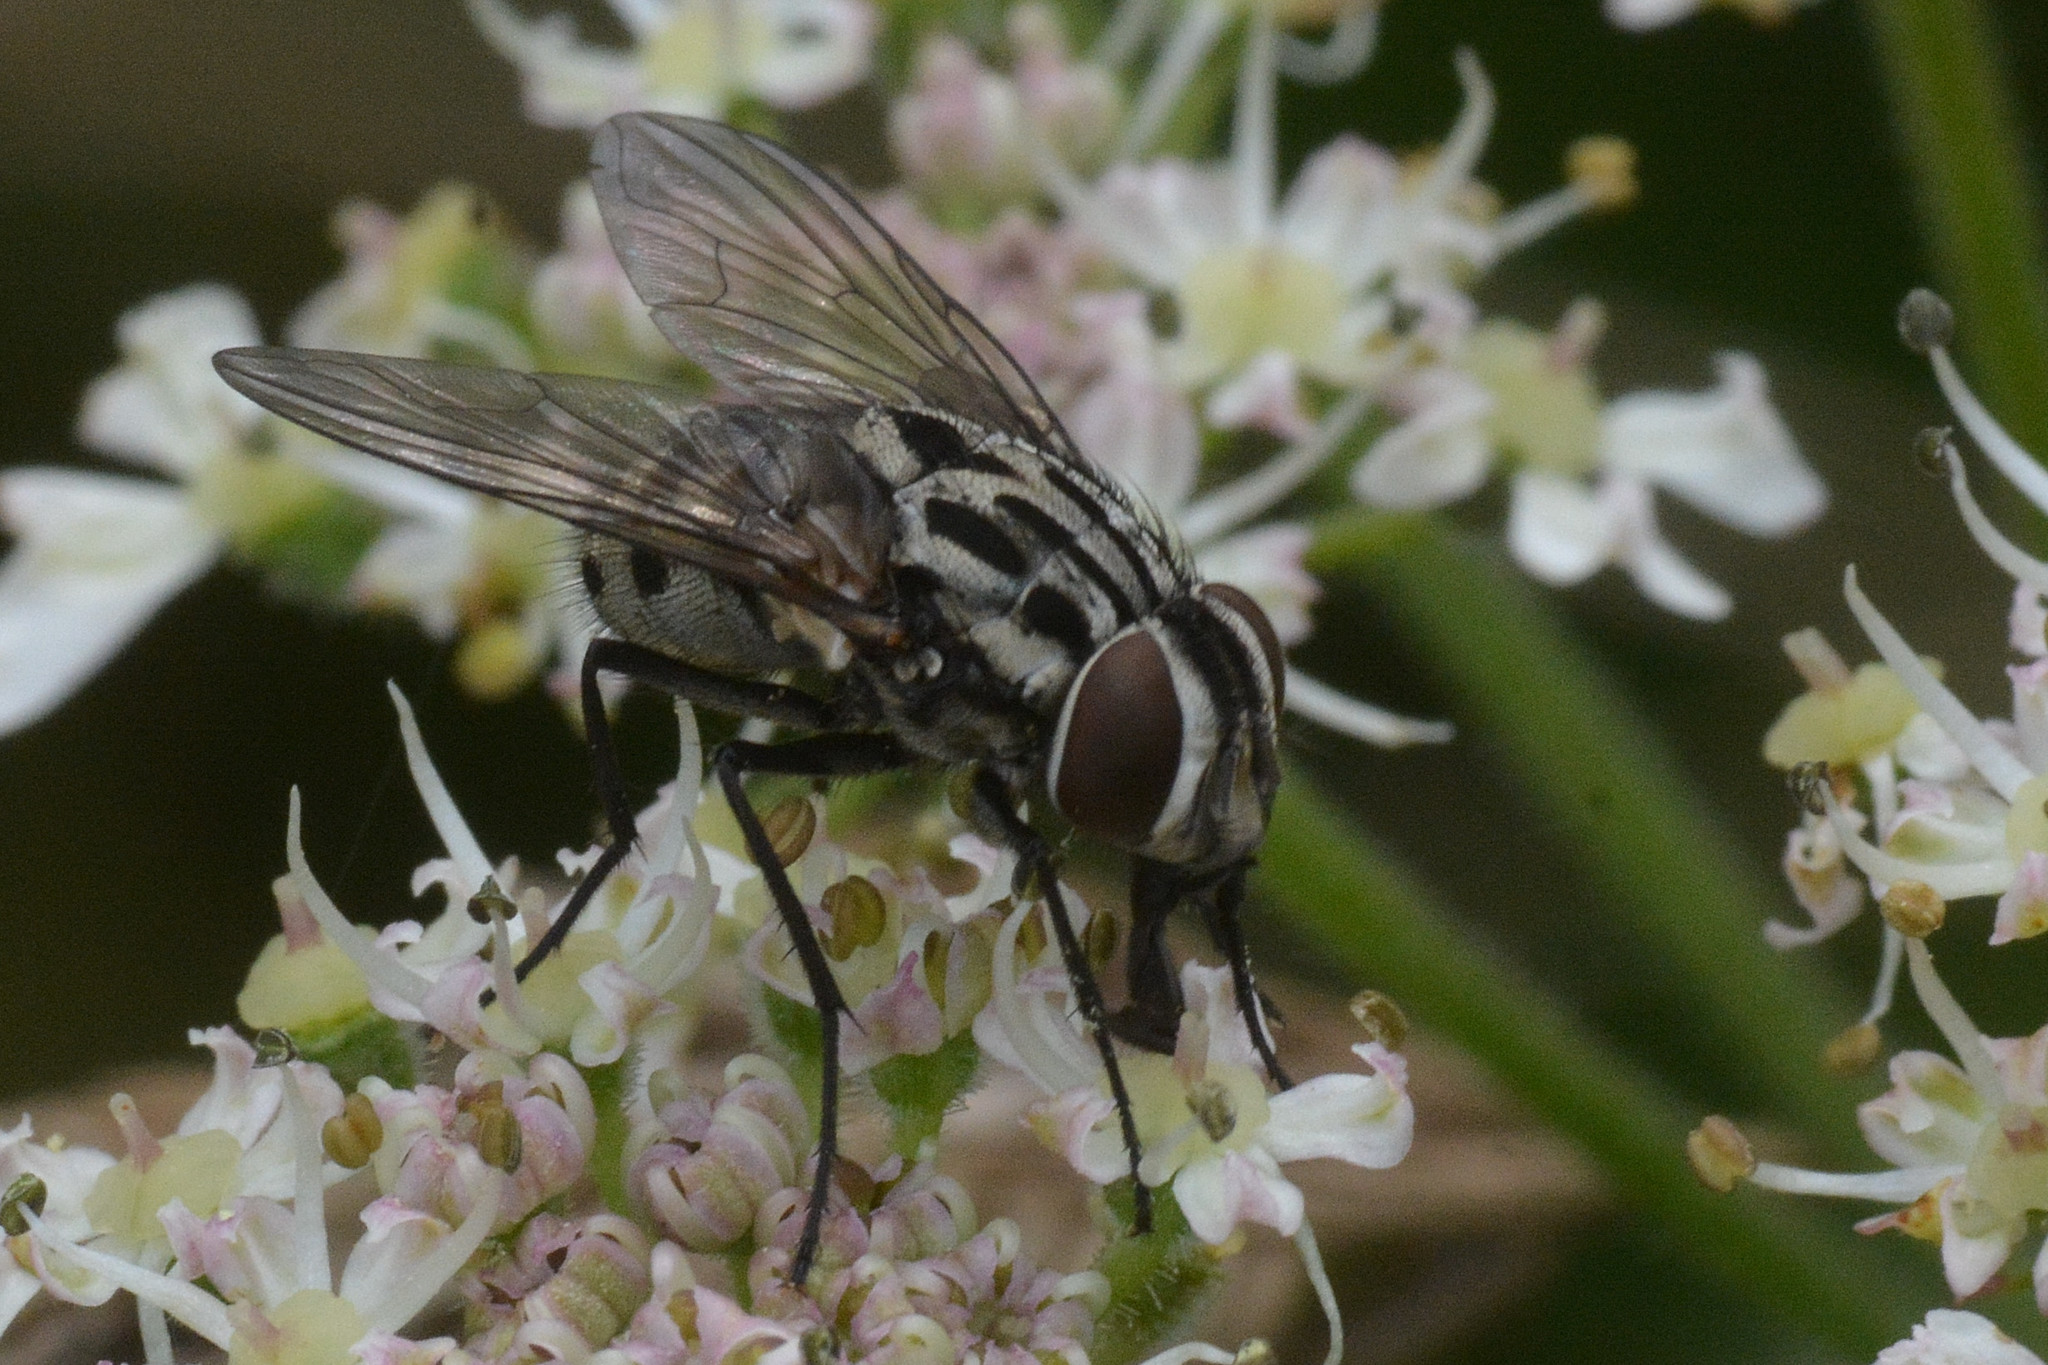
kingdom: Animalia
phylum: Arthropoda
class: Insecta
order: Diptera
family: Muscidae
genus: Graphomya
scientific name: Graphomya maculata
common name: Muscid fly
